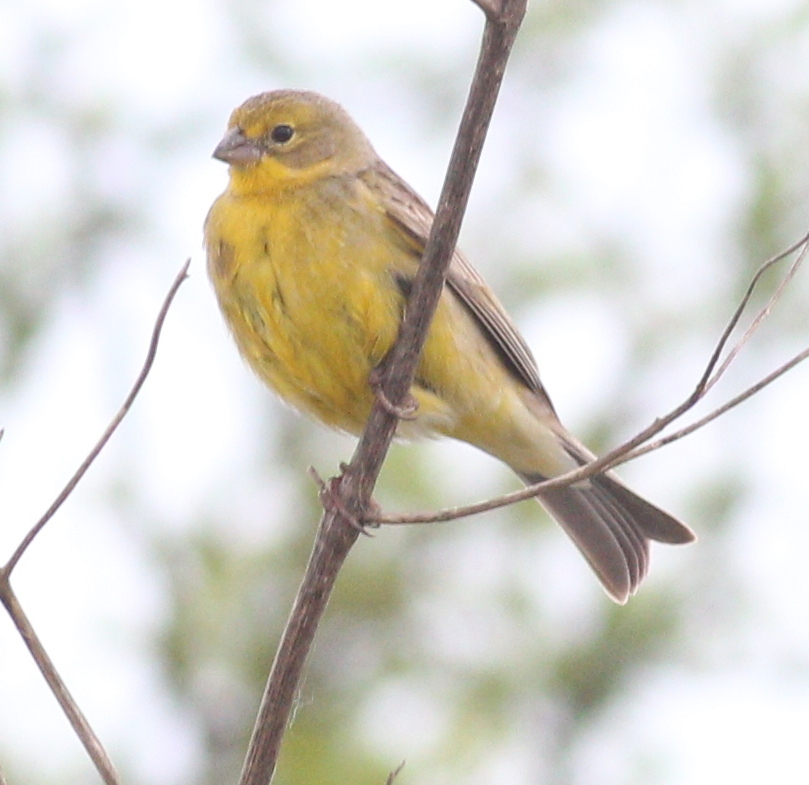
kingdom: Animalia
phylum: Chordata
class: Aves
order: Passeriformes
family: Thraupidae
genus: Sicalis
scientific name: Sicalis luteola
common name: Grassland yellow-finch
